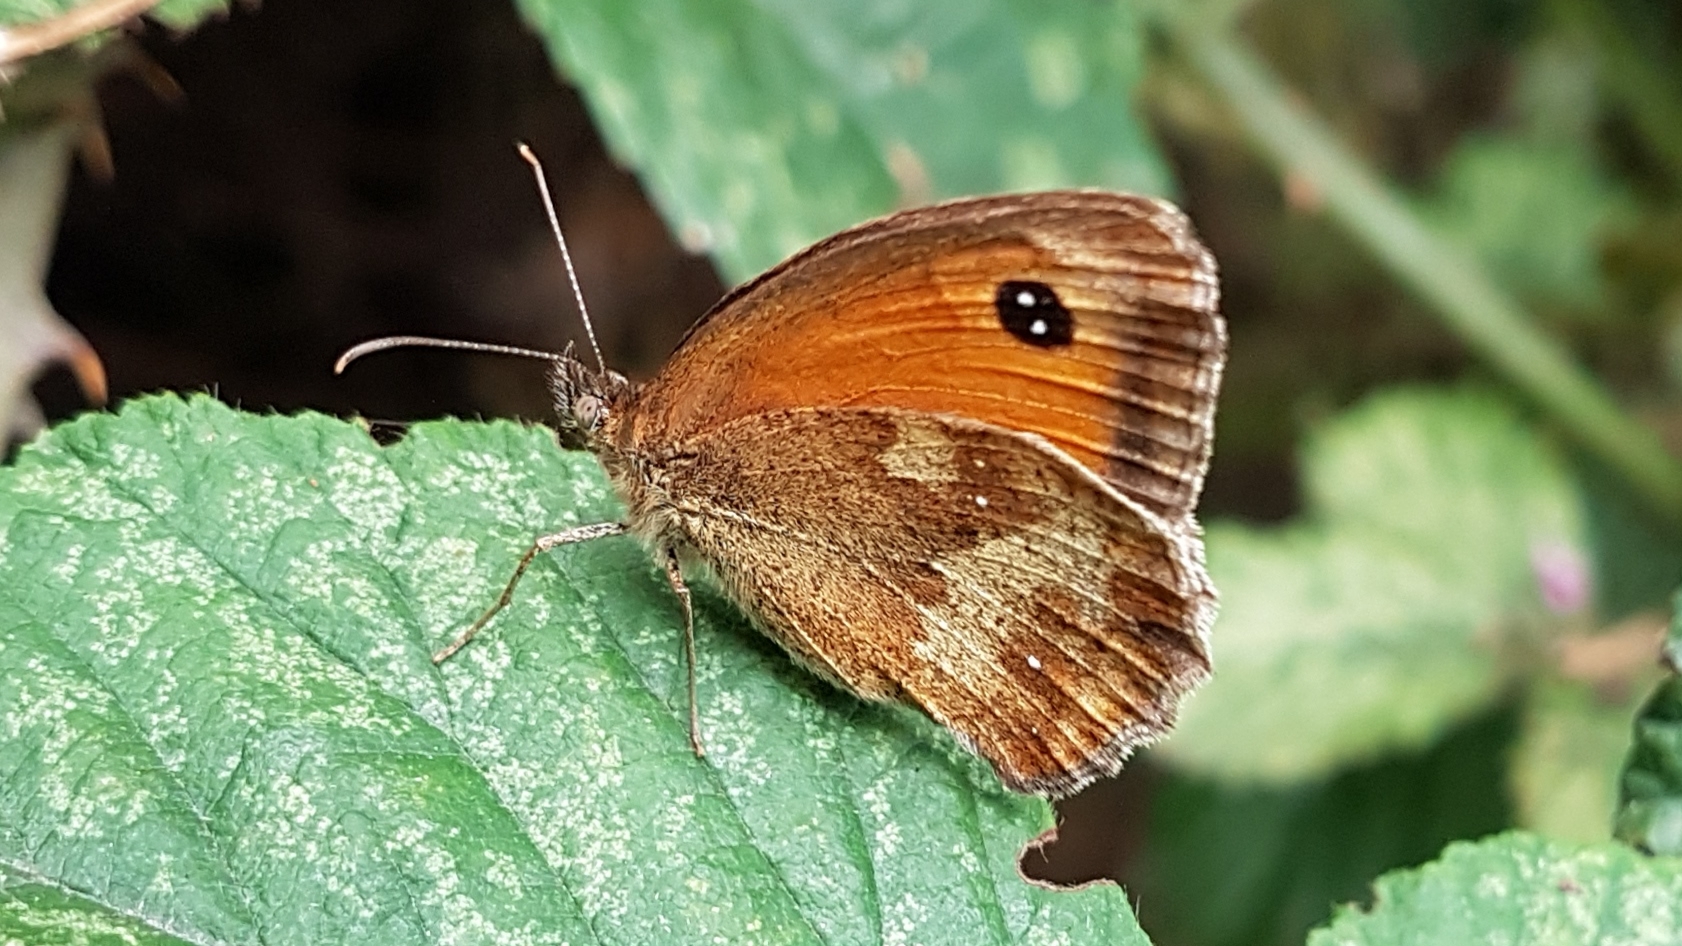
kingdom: Animalia
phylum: Arthropoda
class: Insecta
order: Lepidoptera
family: Nymphalidae
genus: Pyronia
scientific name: Pyronia tithonus
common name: Gatekeeper
